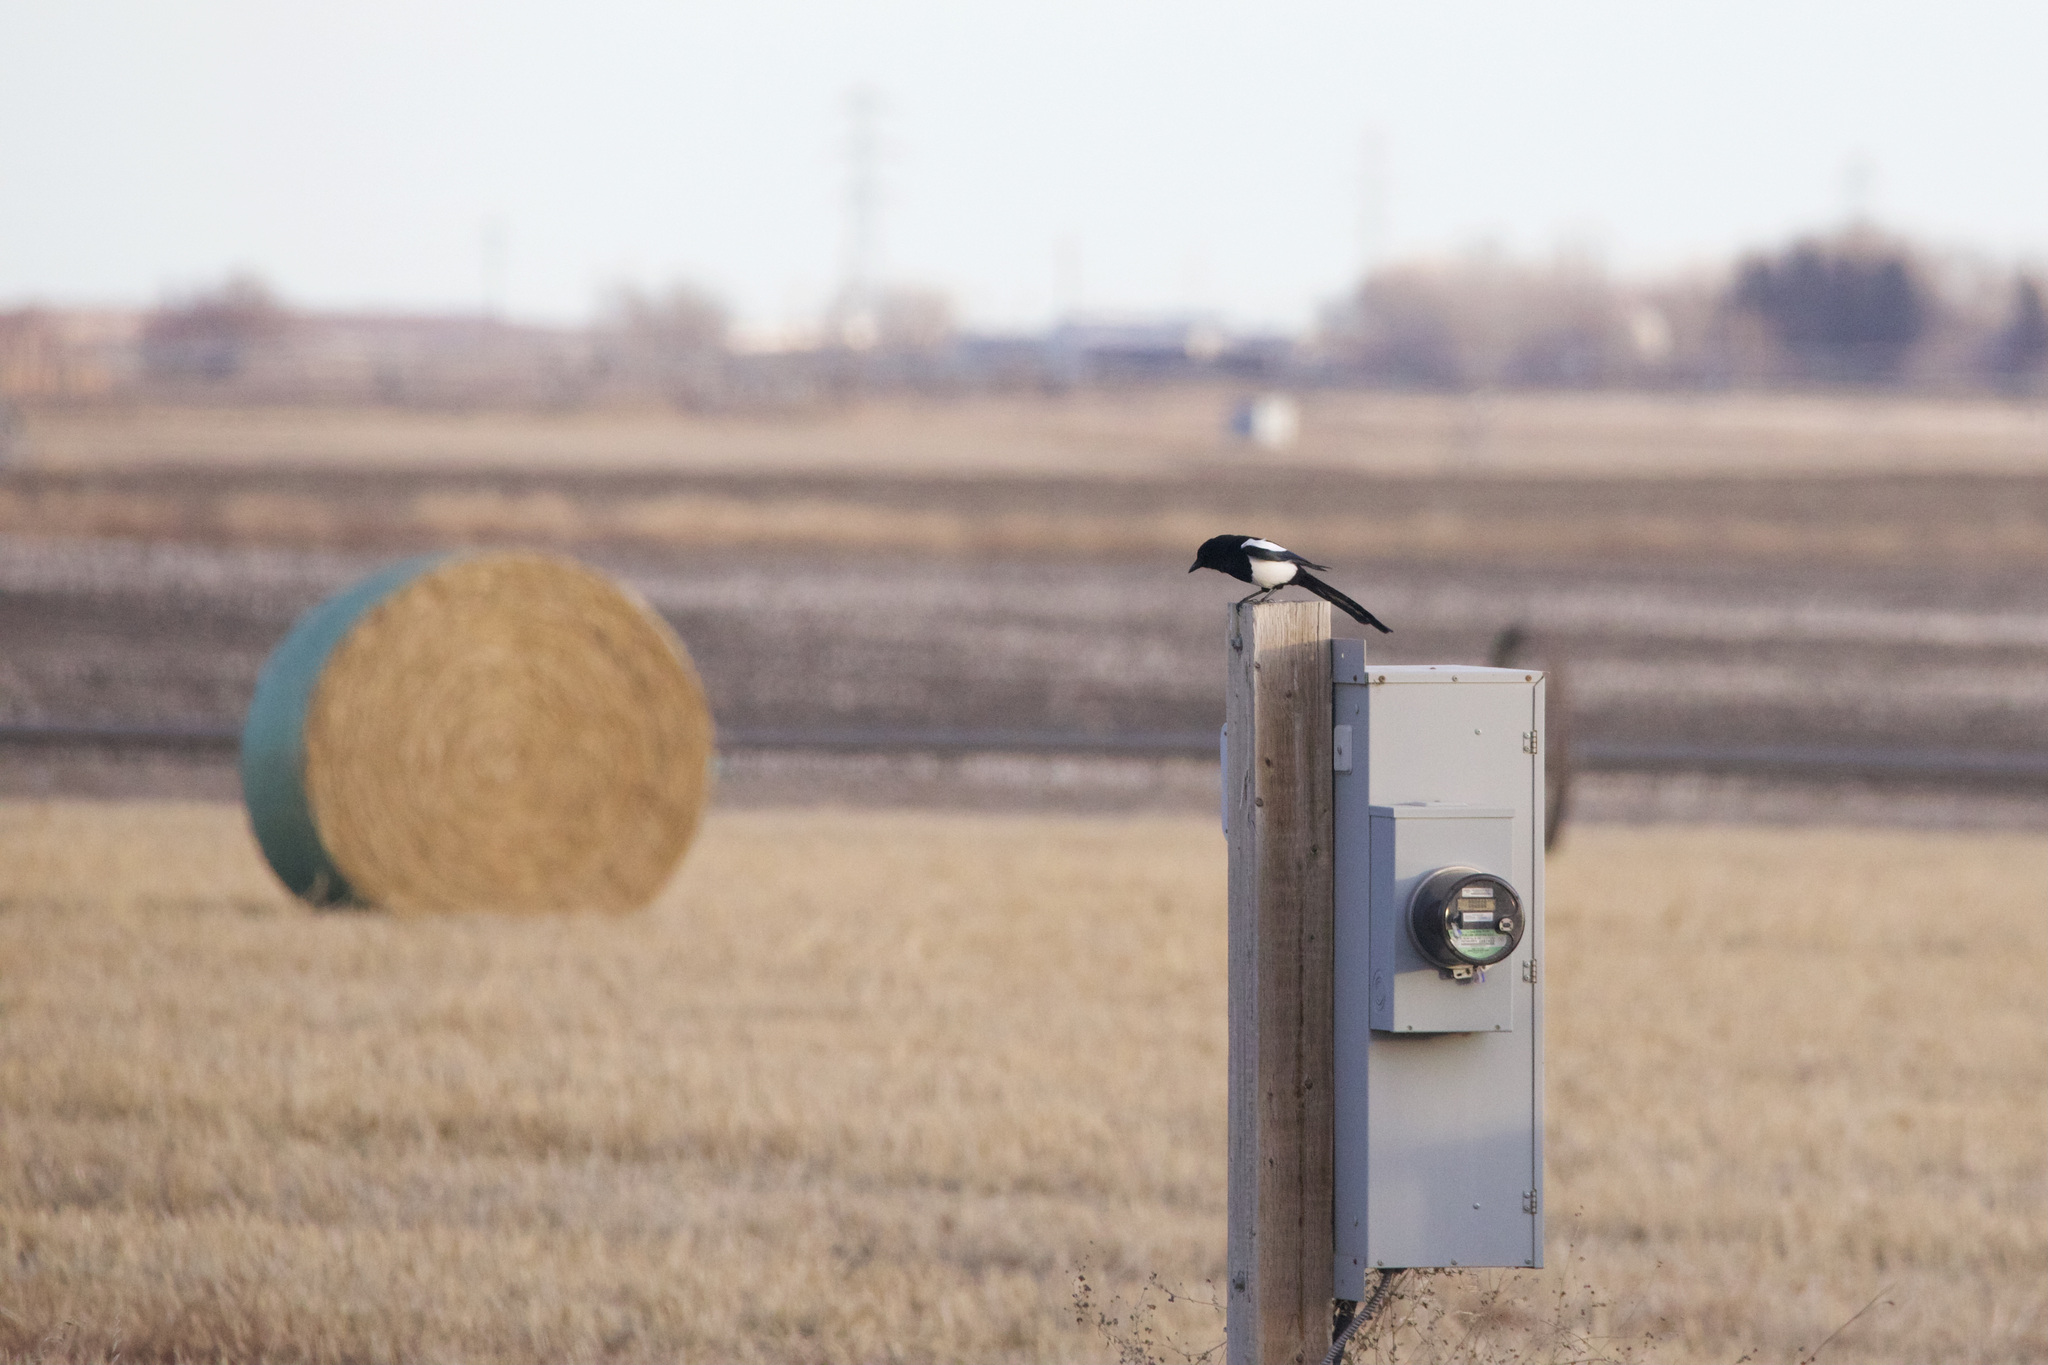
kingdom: Animalia
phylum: Chordata
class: Aves
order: Passeriformes
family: Corvidae
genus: Pica
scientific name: Pica hudsonia
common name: Black-billed magpie
